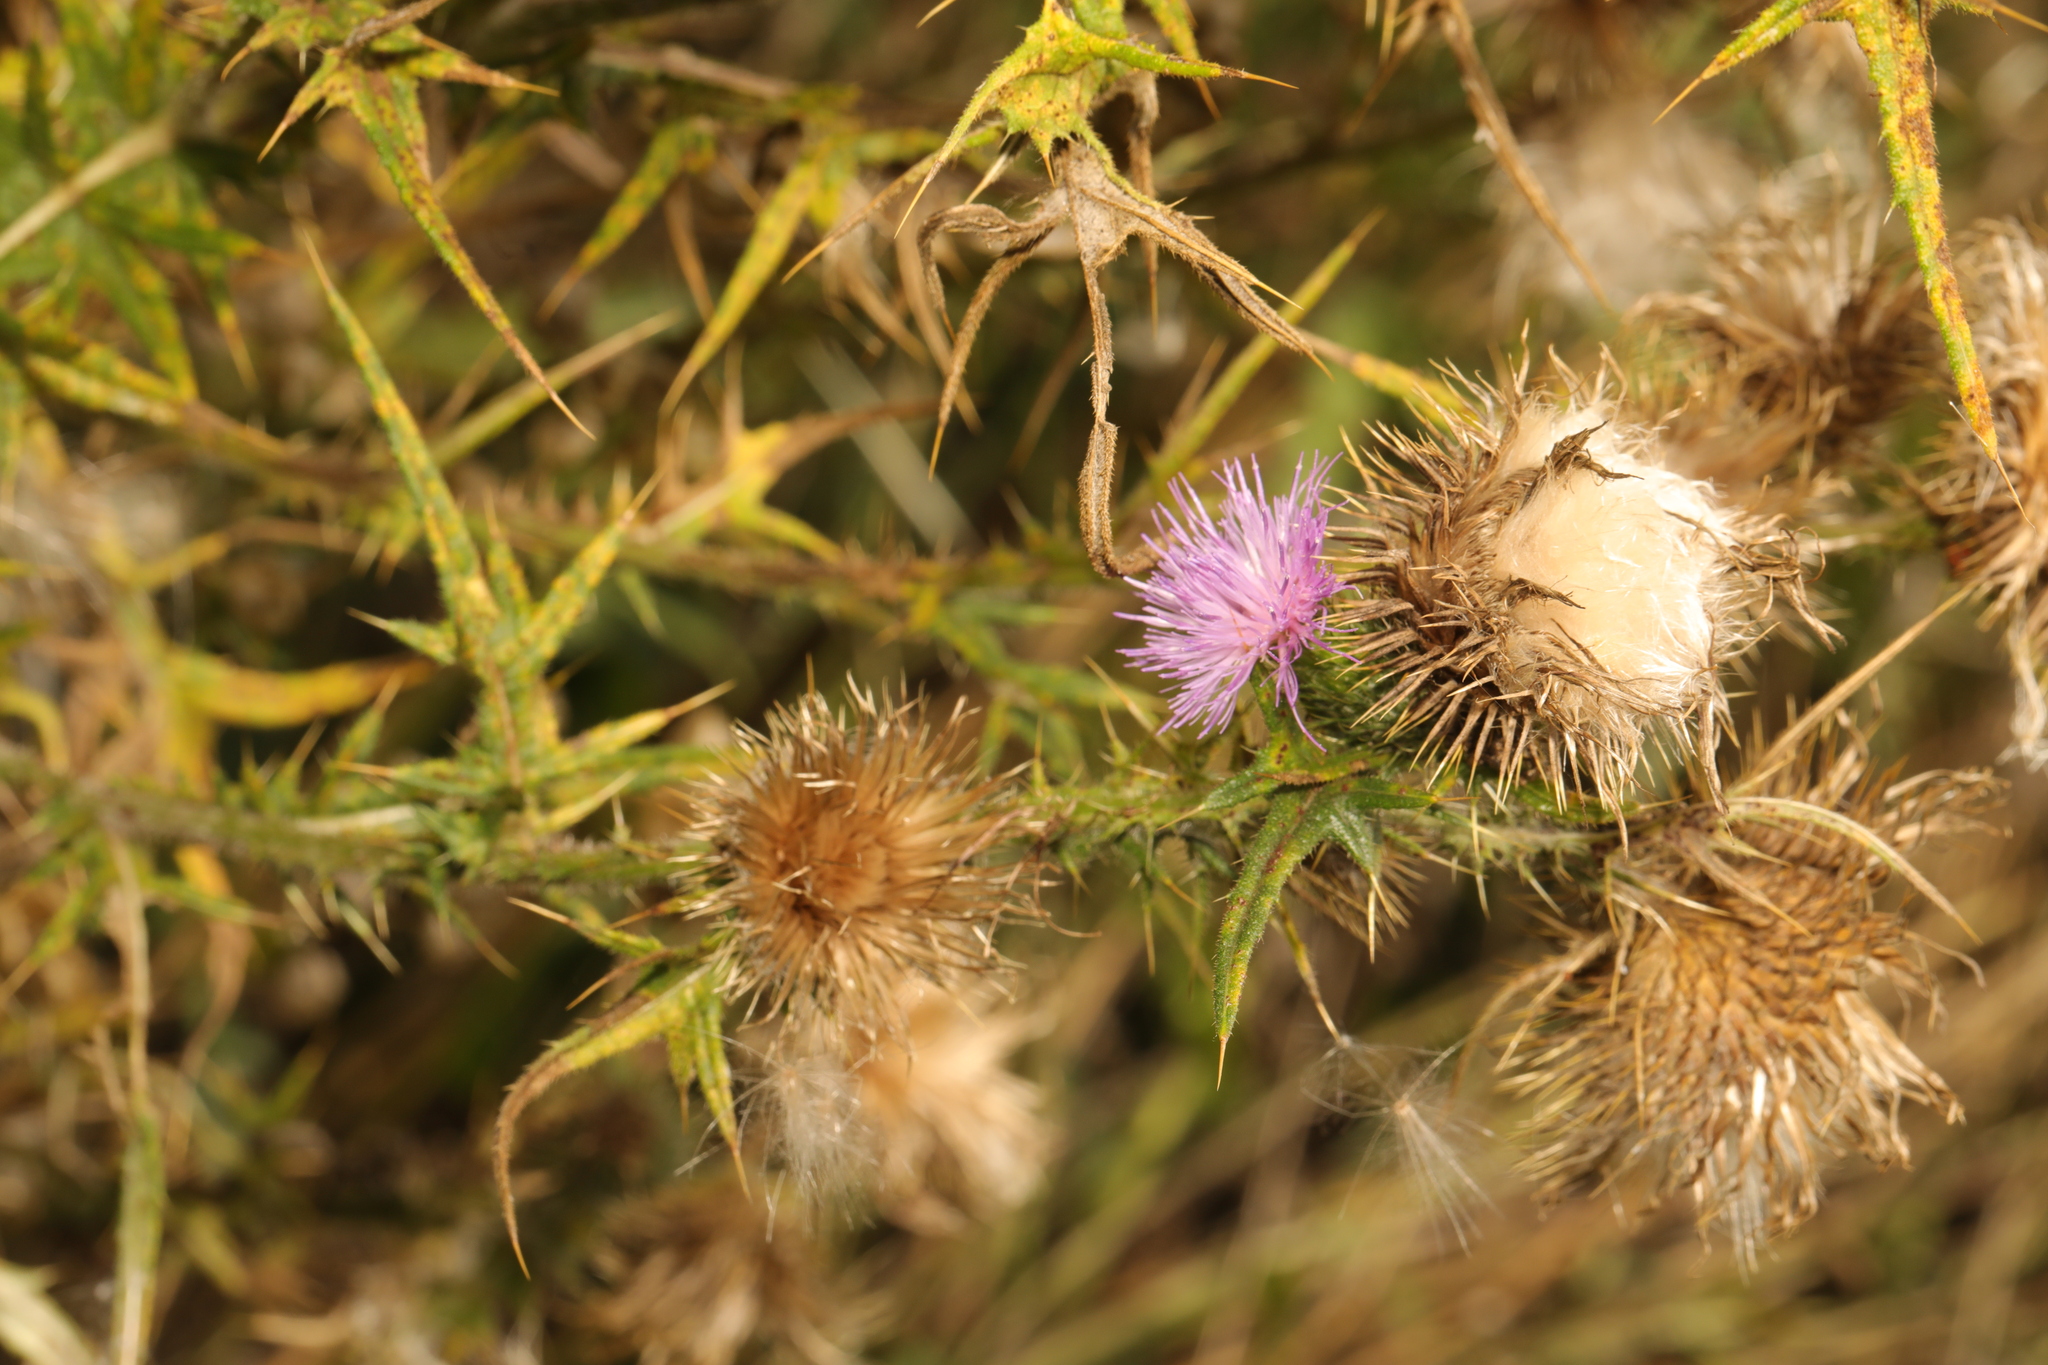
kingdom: Plantae
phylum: Tracheophyta
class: Magnoliopsida
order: Asterales
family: Asteraceae
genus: Cirsium
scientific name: Cirsium vulgare
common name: Bull thistle
